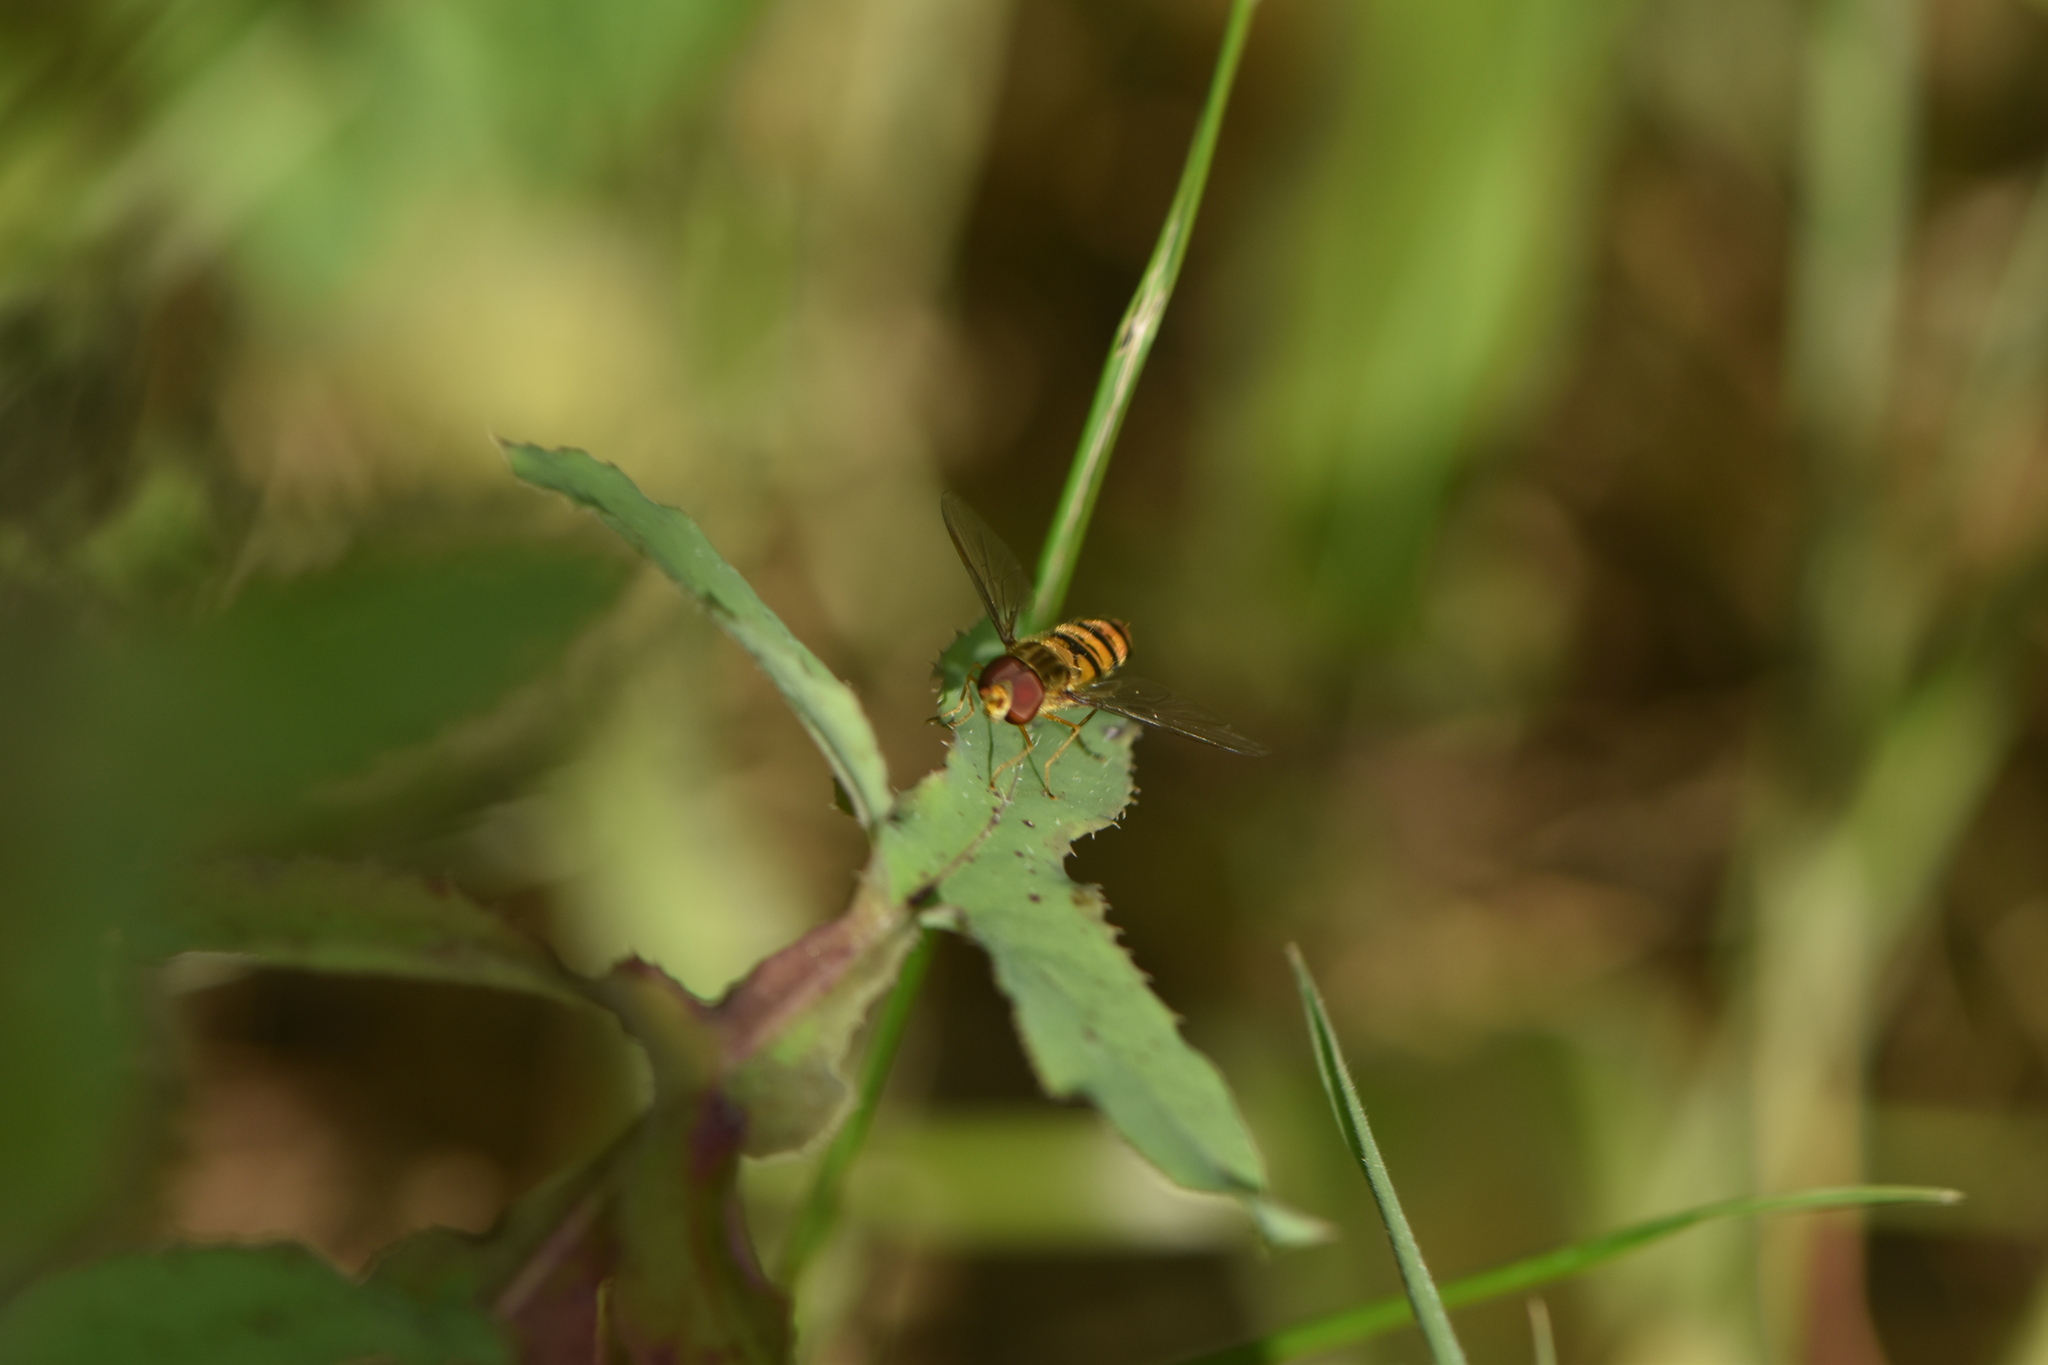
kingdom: Animalia
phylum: Arthropoda
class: Insecta
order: Diptera
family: Syrphidae
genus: Episyrphus
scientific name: Episyrphus balteatus
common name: Marmalade hoverfly
